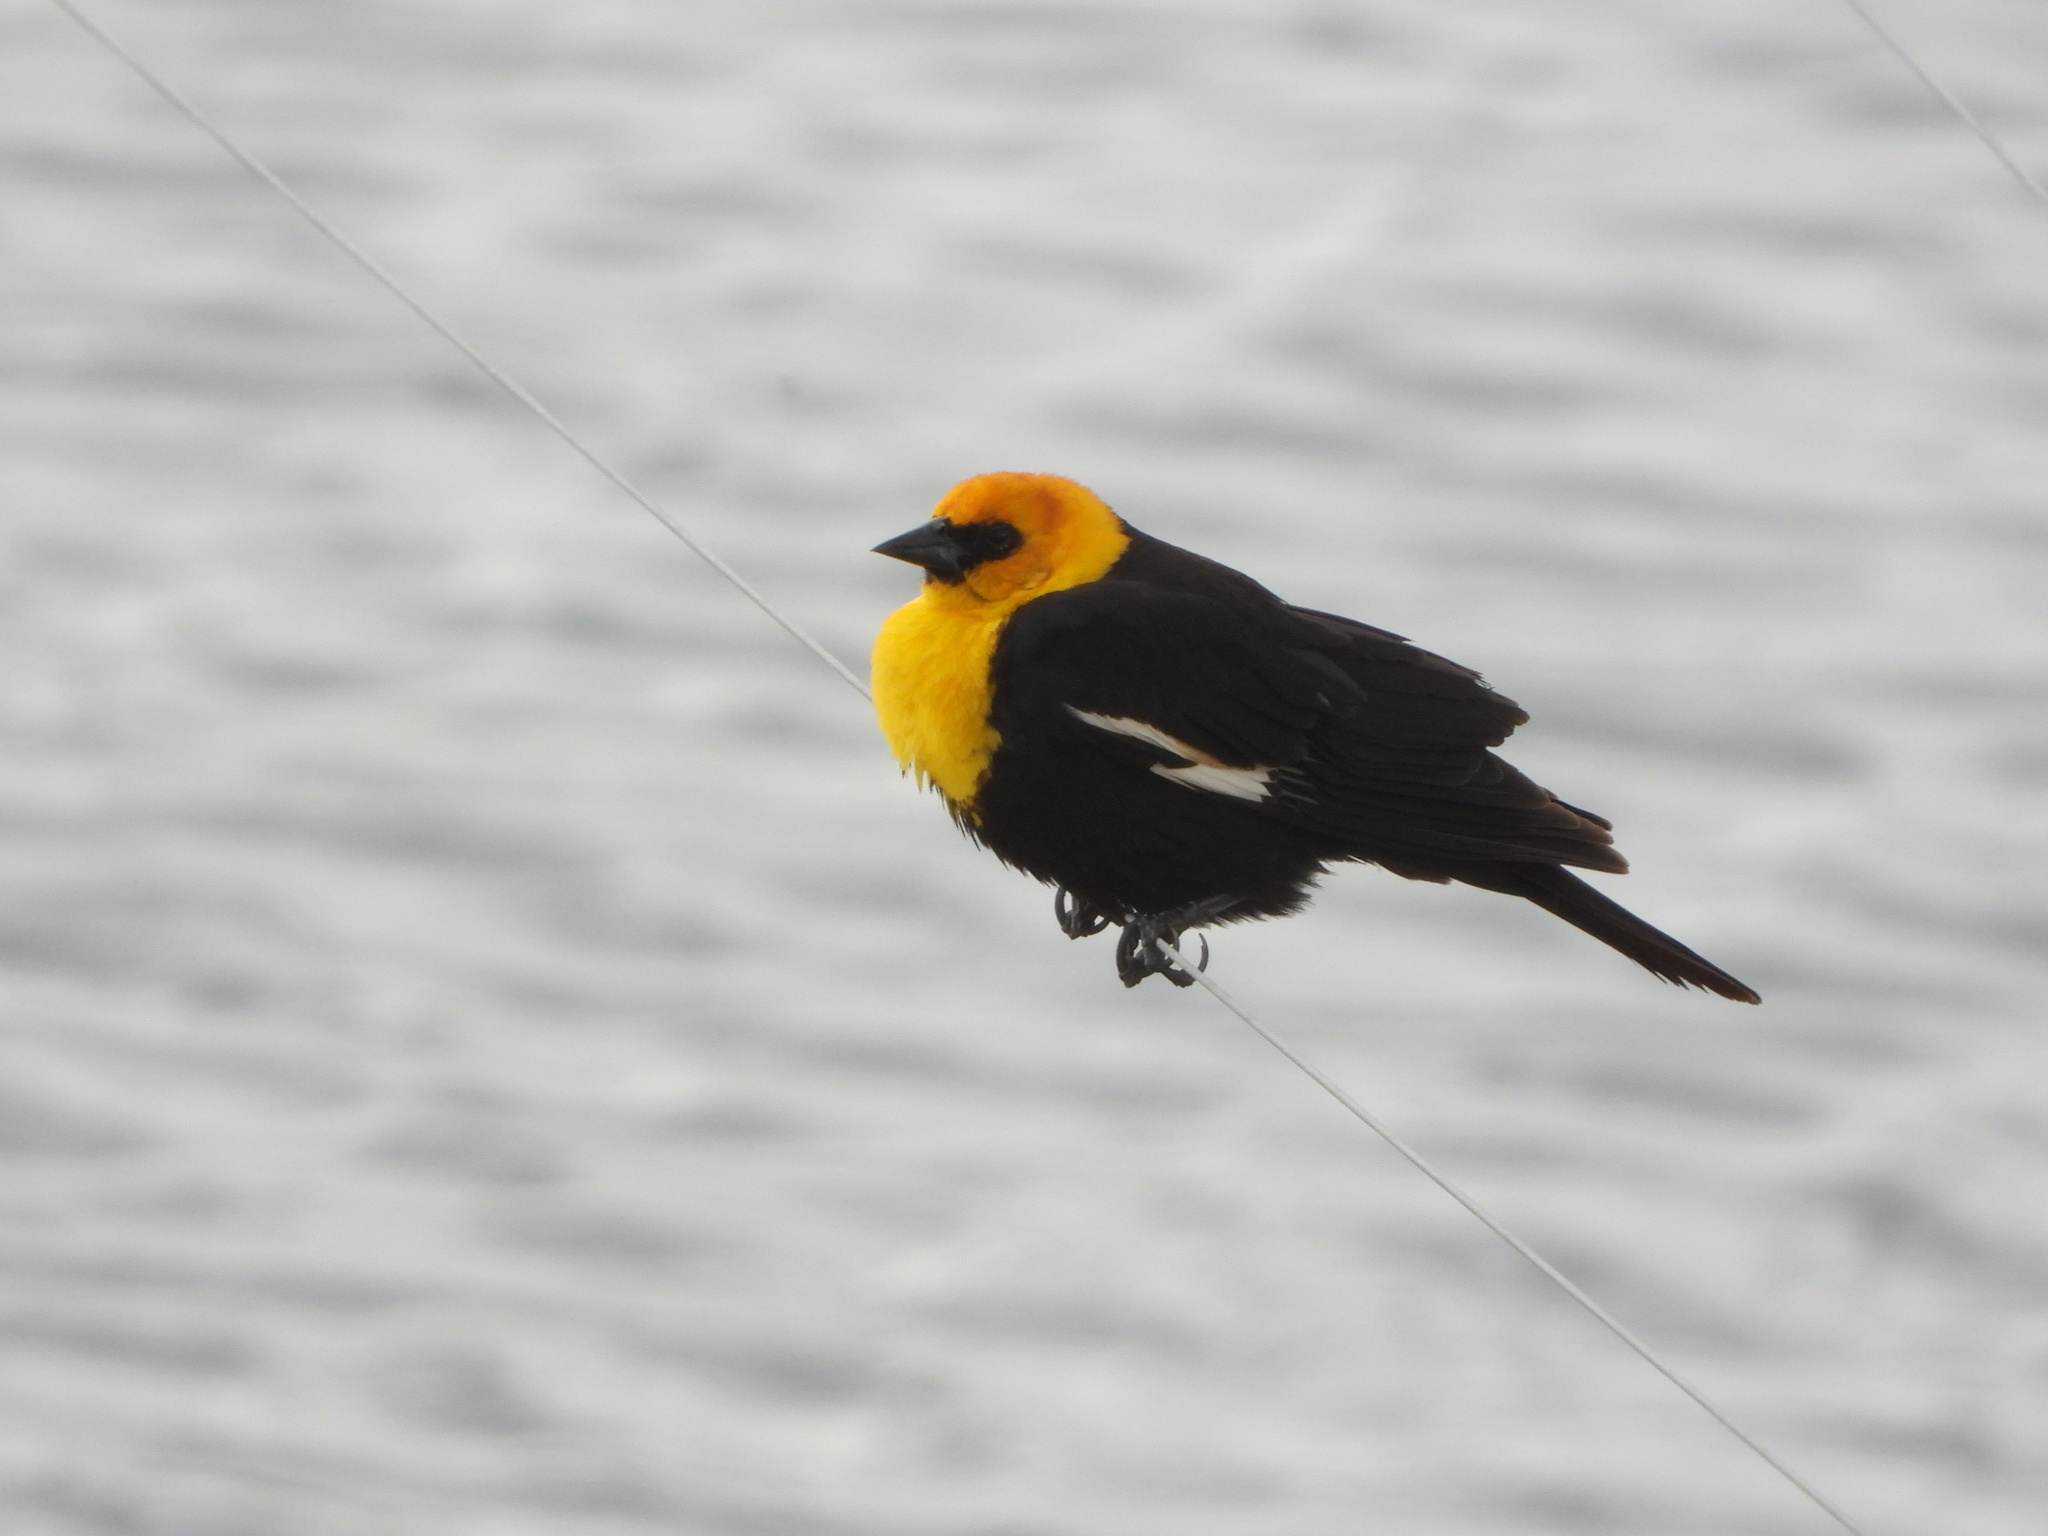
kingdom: Animalia
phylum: Chordata
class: Aves
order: Passeriformes
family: Icteridae
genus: Xanthocephalus
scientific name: Xanthocephalus xanthocephalus
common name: Yellow-headed blackbird
